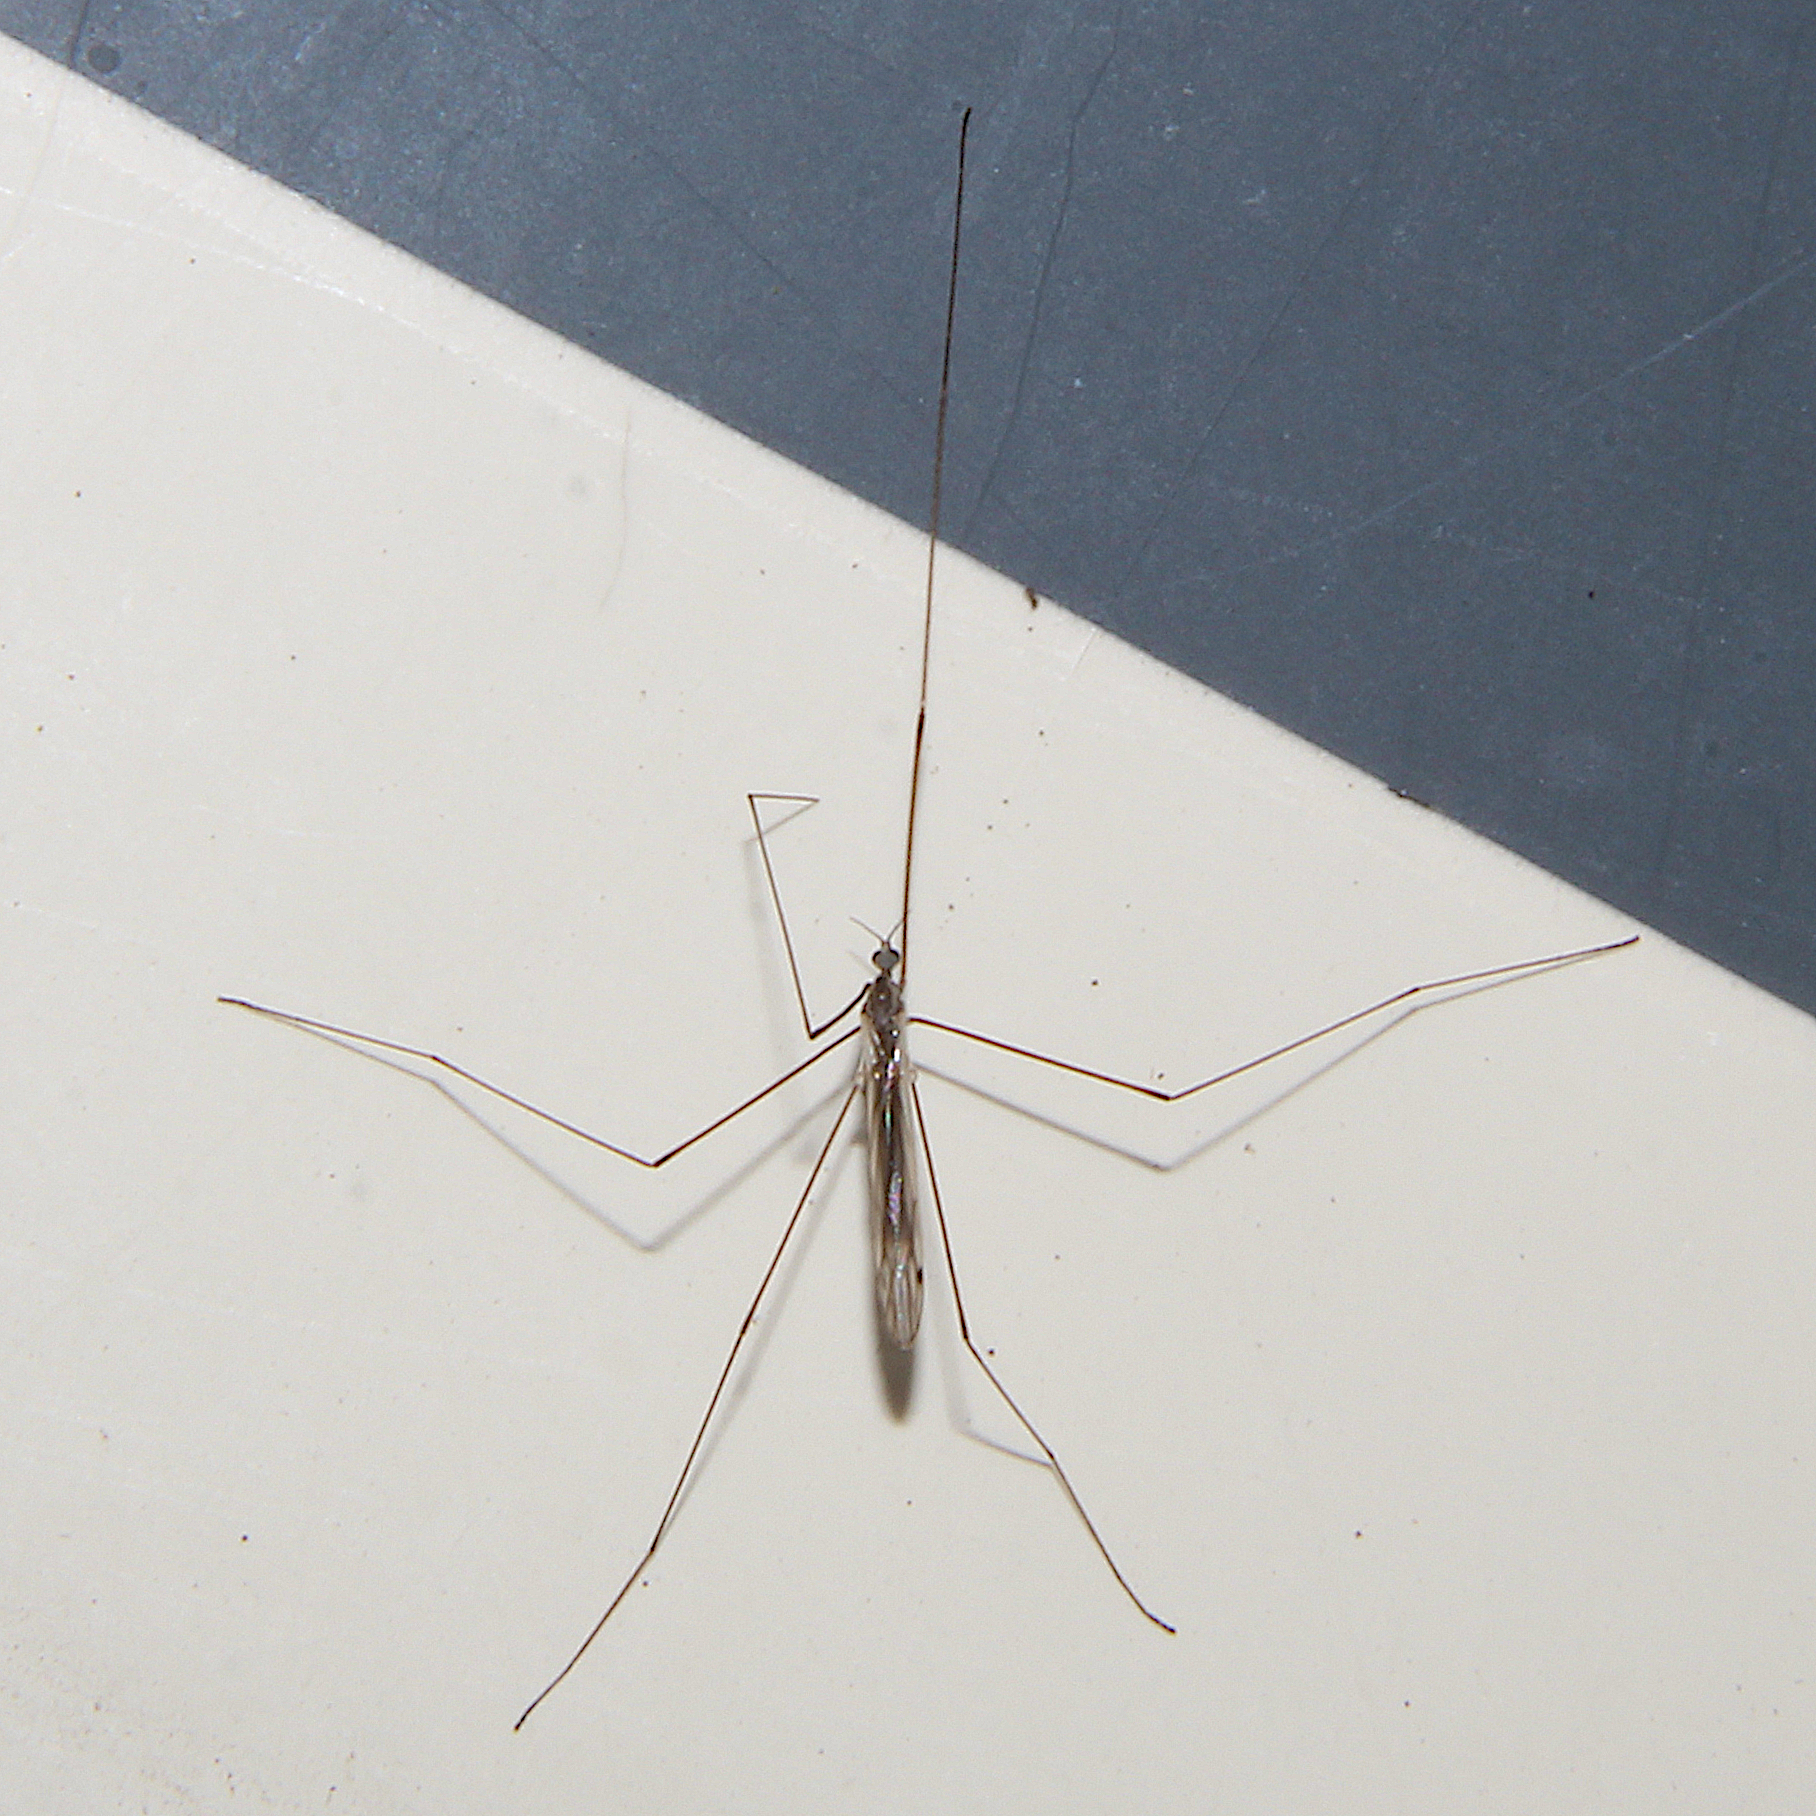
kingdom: Animalia
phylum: Arthropoda
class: Insecta
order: Diptera
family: Limoniidae
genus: Dicranomyia
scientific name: Dicranomyia aegrotans
